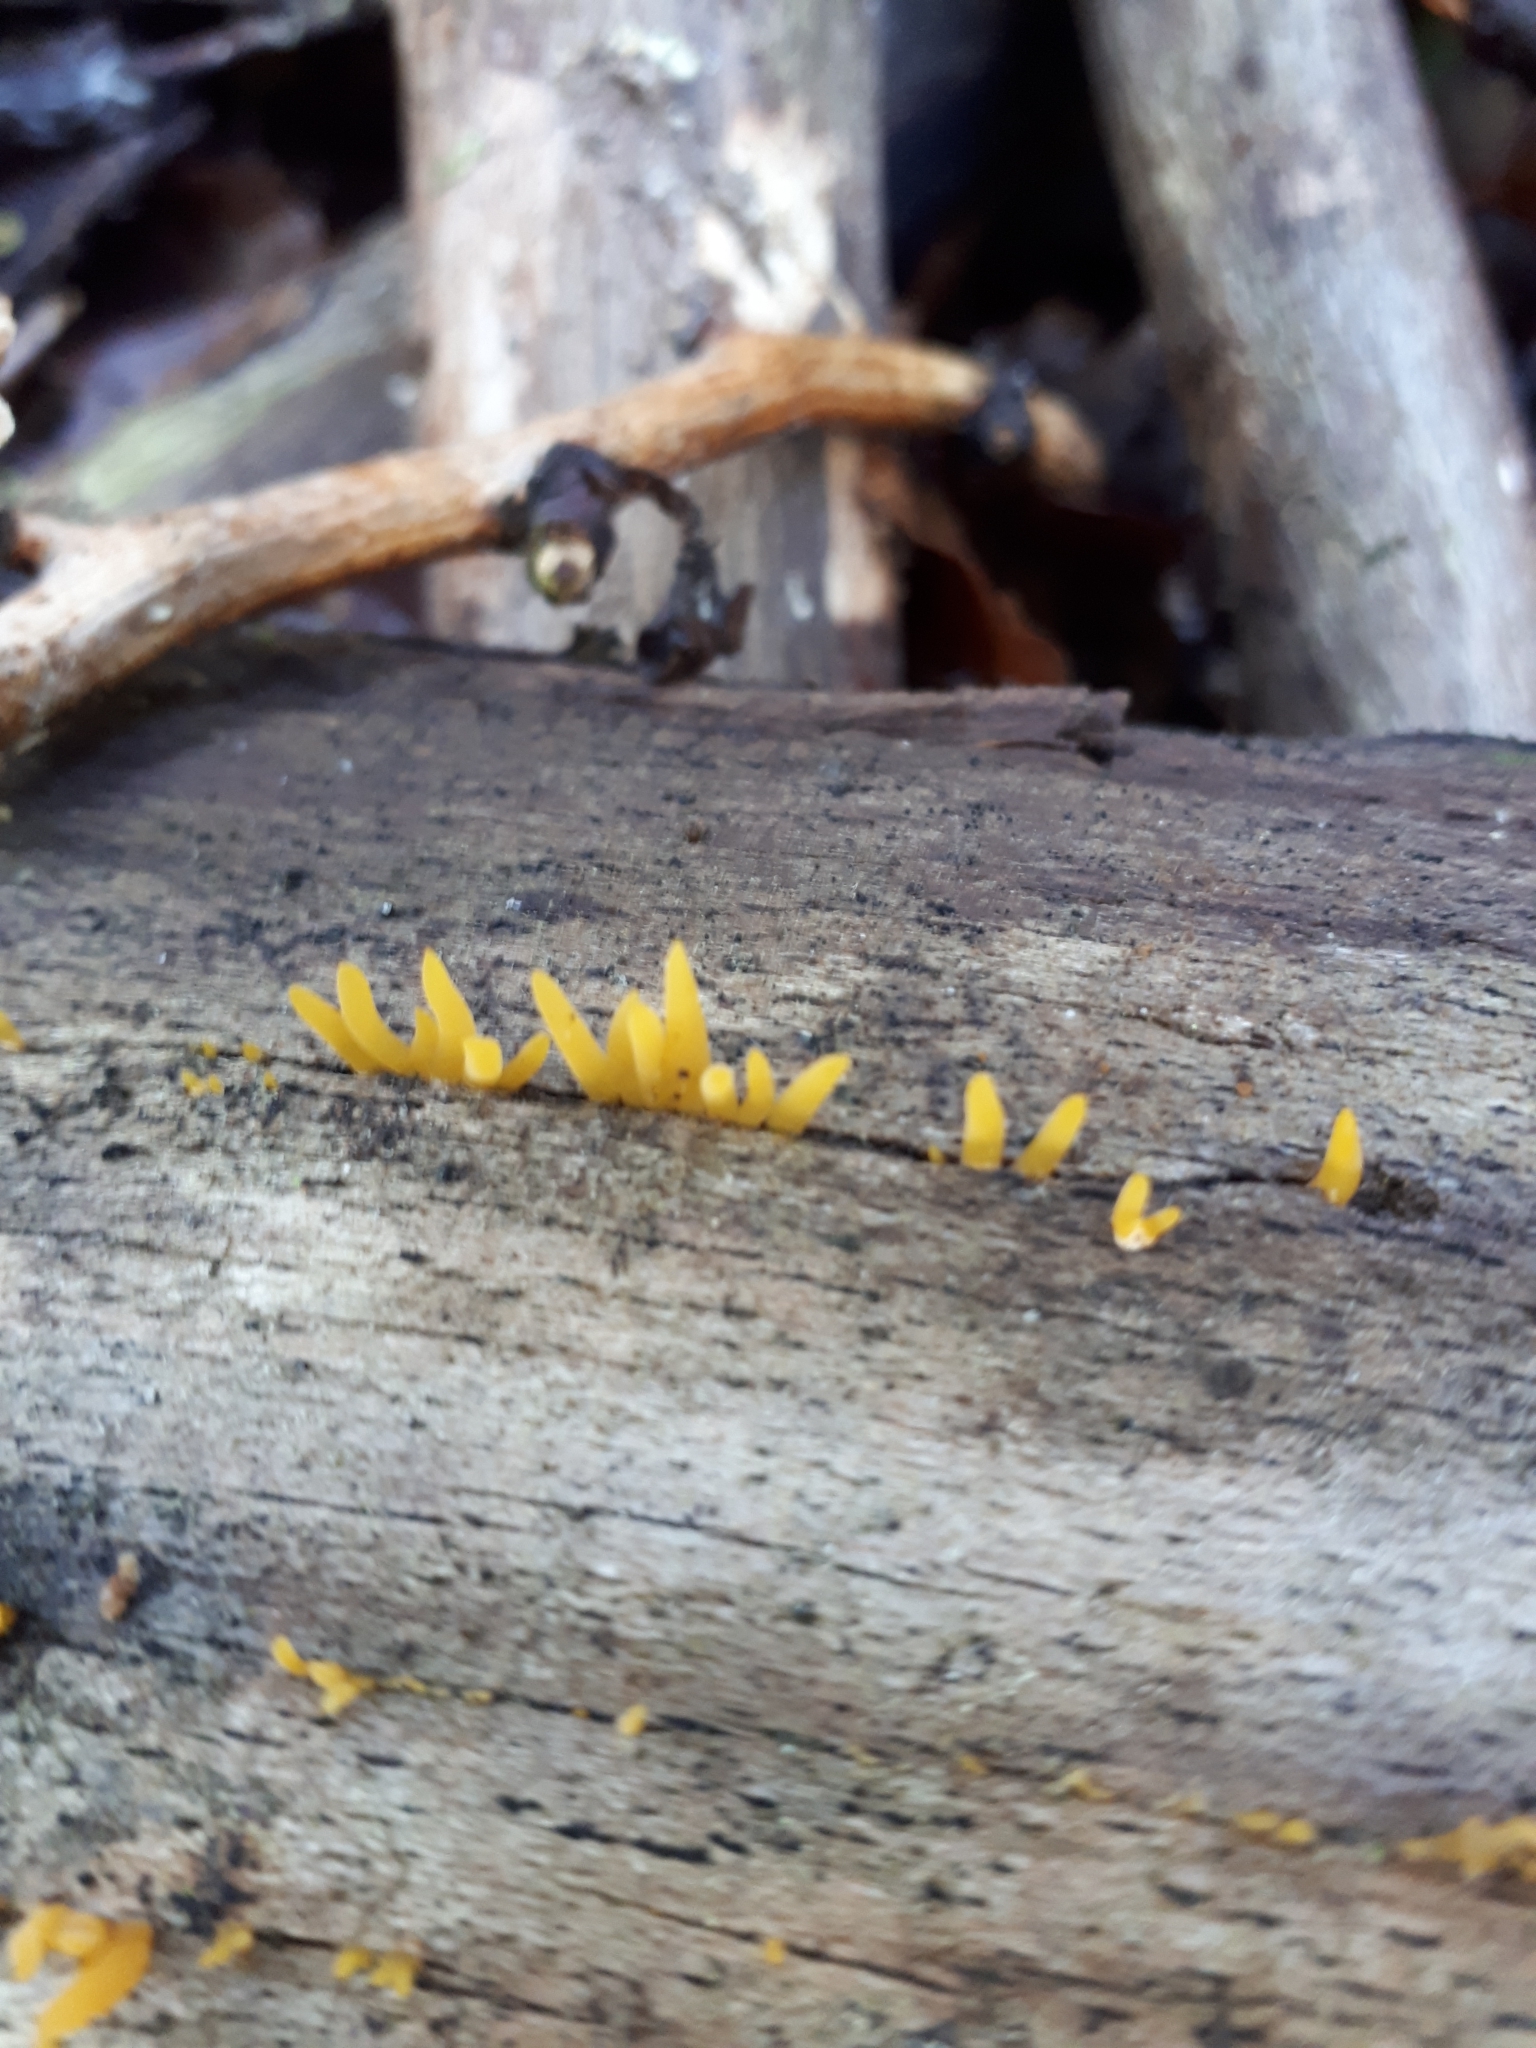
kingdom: Fungi
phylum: Basidiomycota
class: Dacrymycetes
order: Dacrymycetales
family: Dacrymycetaceae
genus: Calocera
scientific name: Calocera cornea
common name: Small stagshorn
